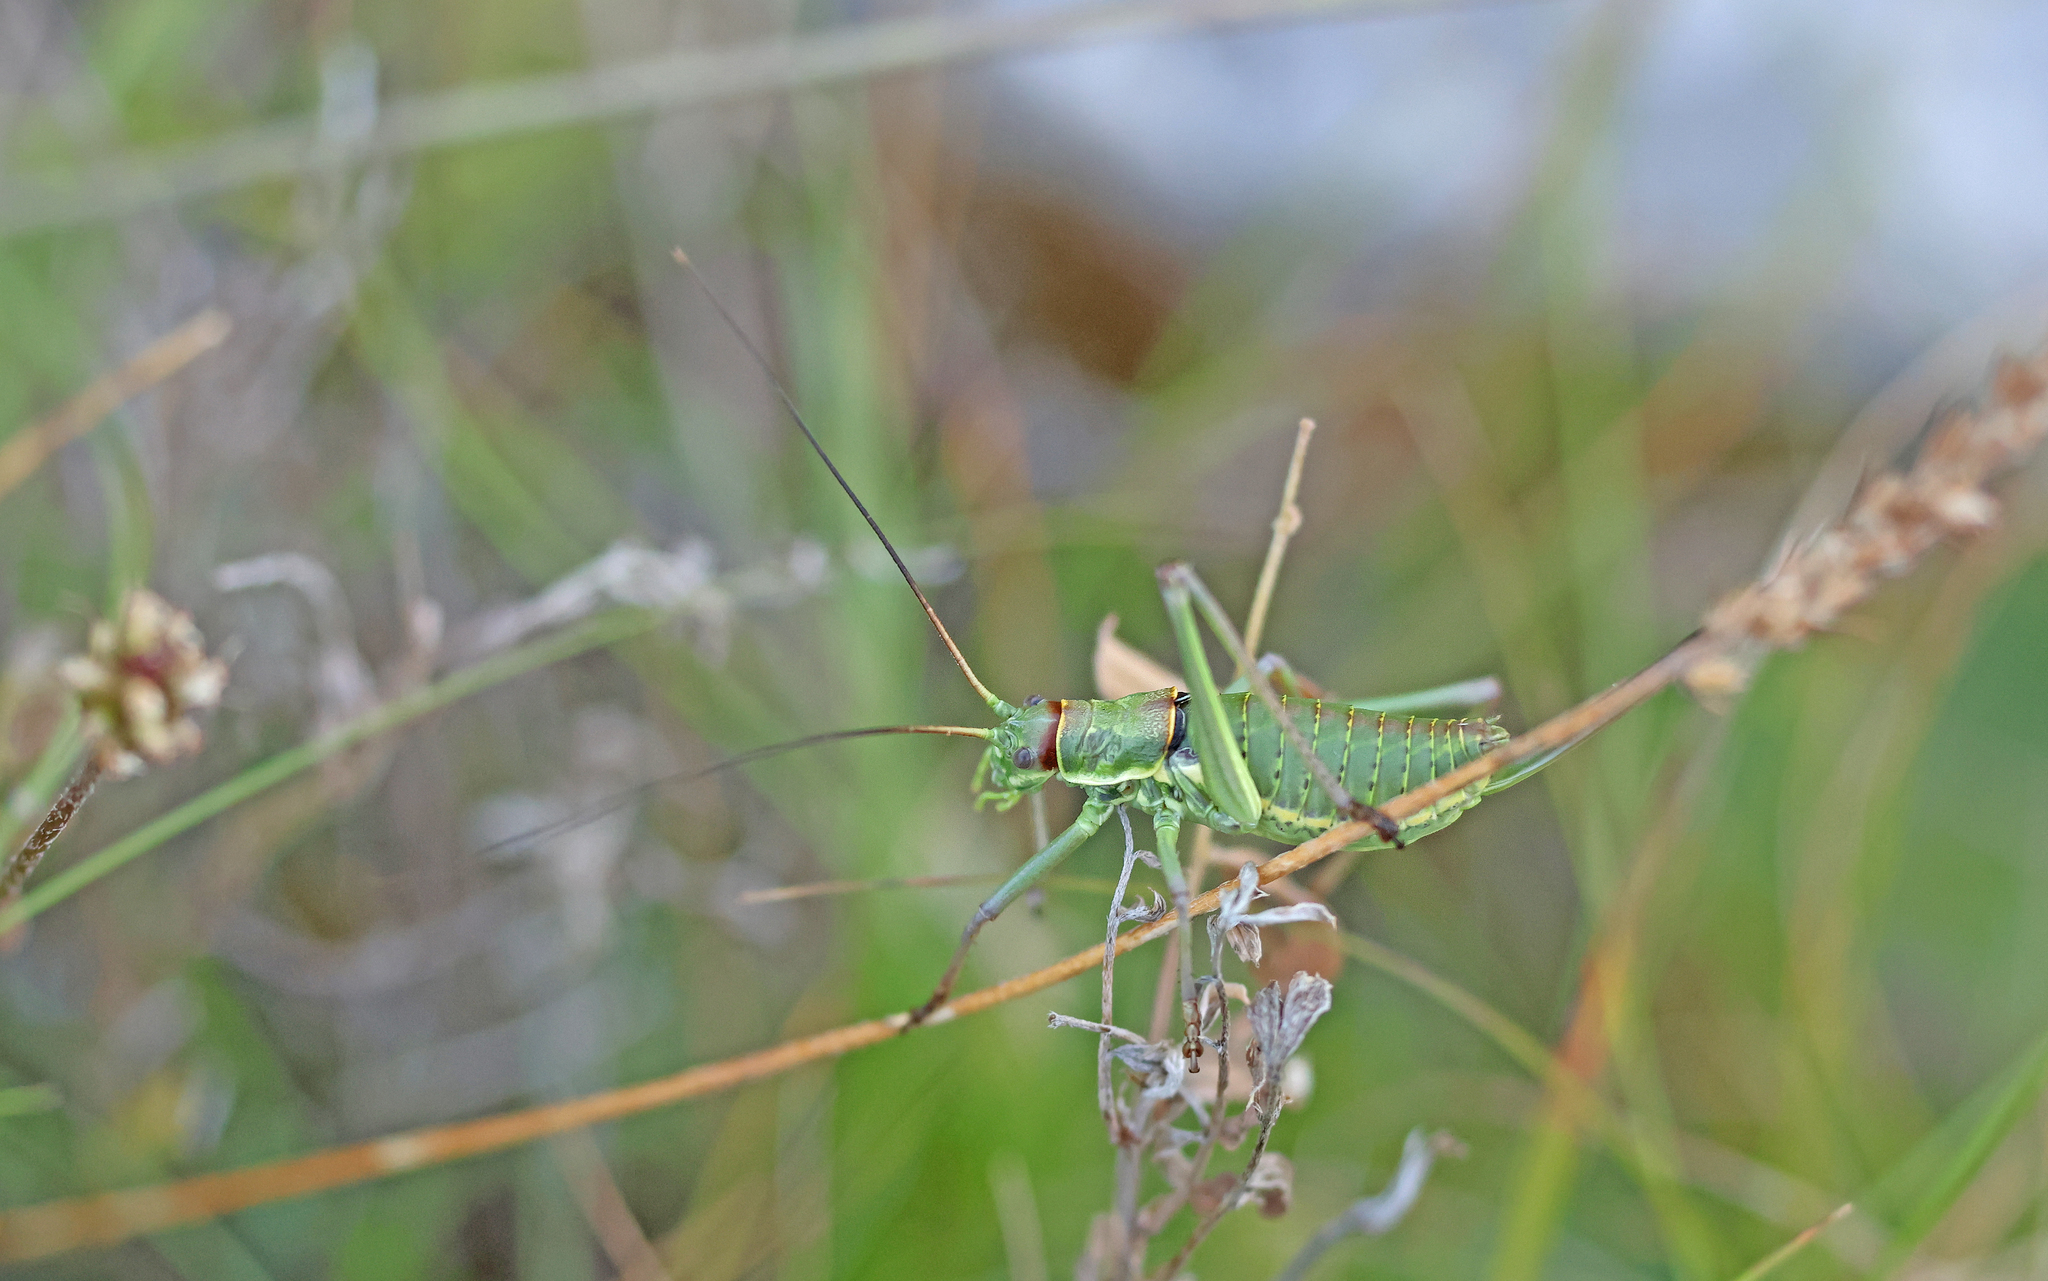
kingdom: Animalia
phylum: Arthropoda
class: Insecta
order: Orthoptera
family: Tettigoniidae
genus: Dinarippiger
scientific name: Dinarippiger discoidalis
